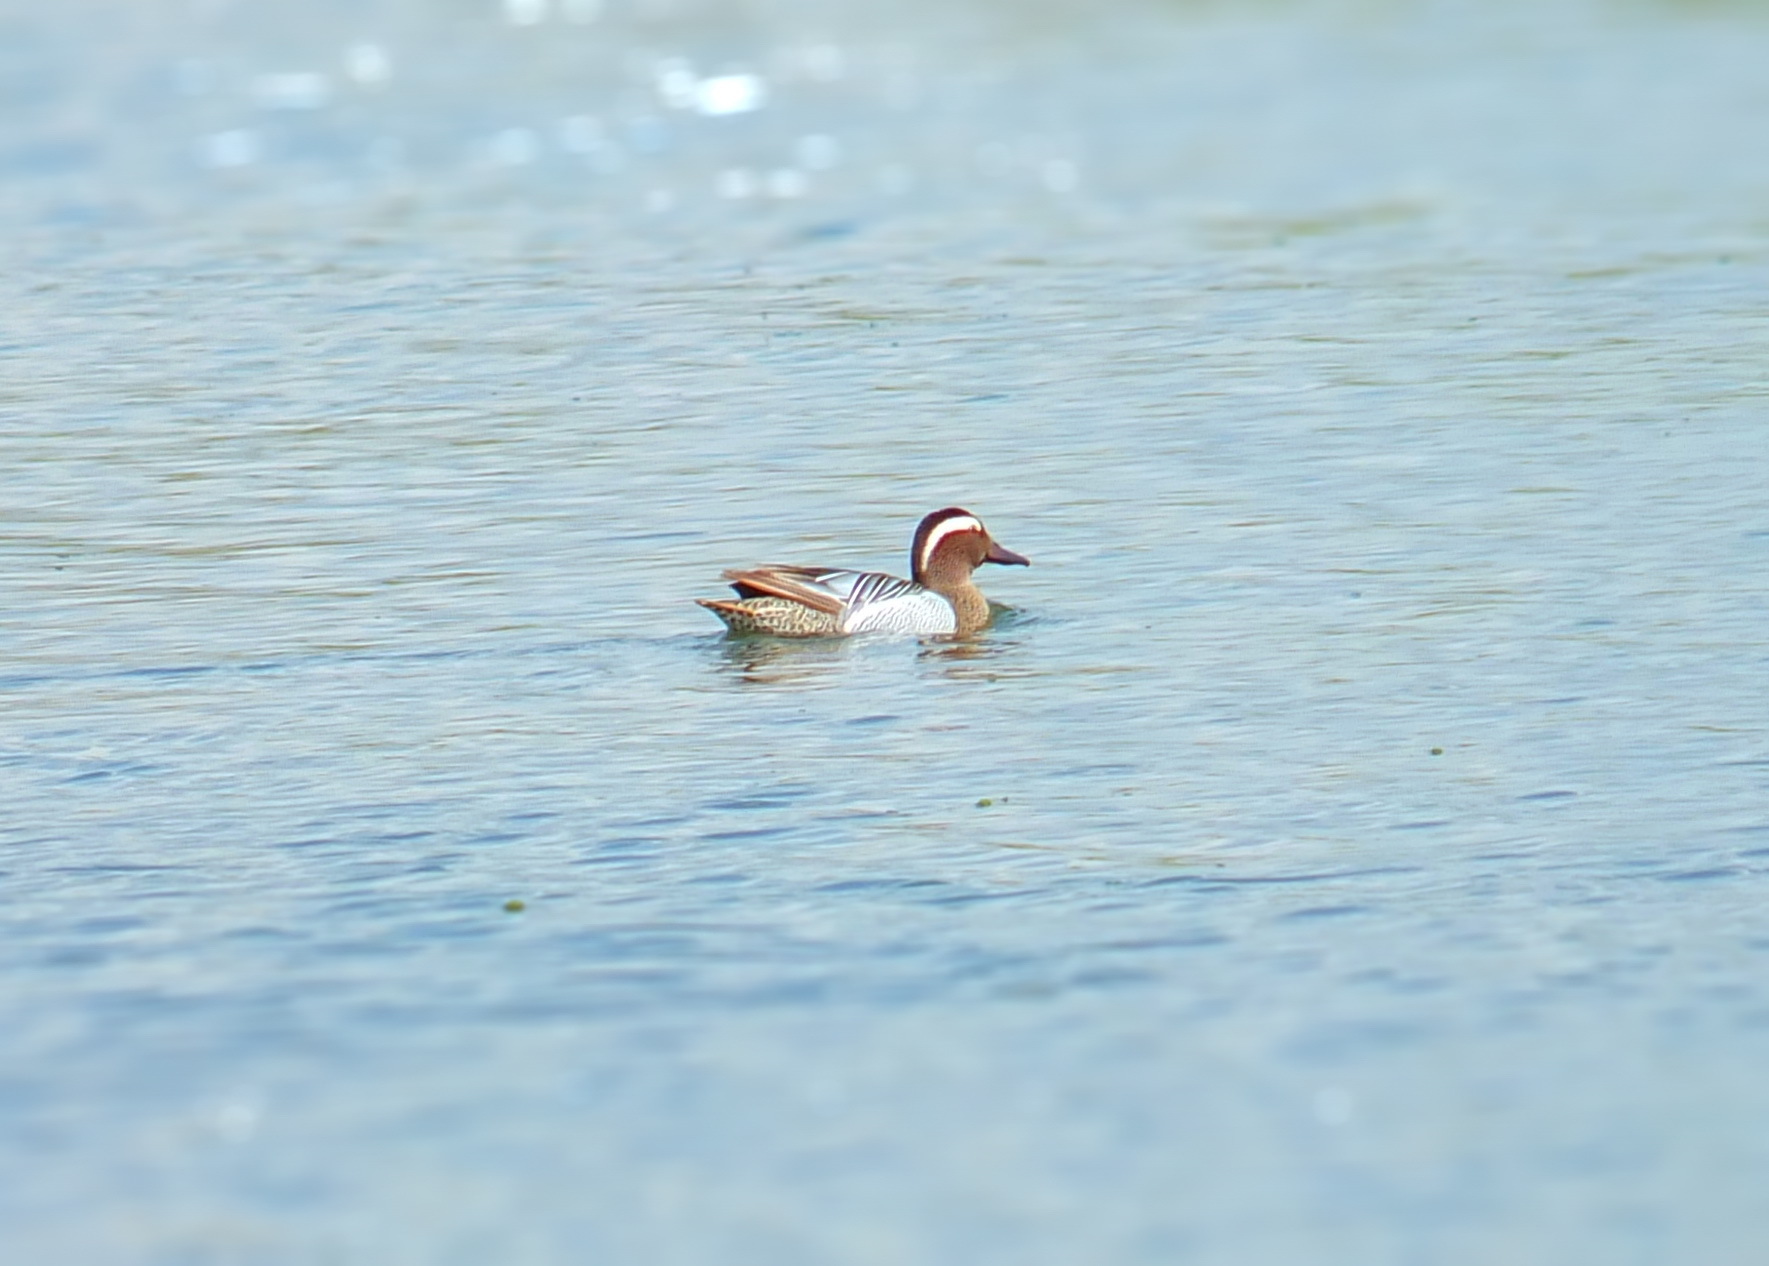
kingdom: Animalia
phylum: Chordata
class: Aves
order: Anseriformes
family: Anatidae
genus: Spatula
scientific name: Spatula querquedula
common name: Garganey
